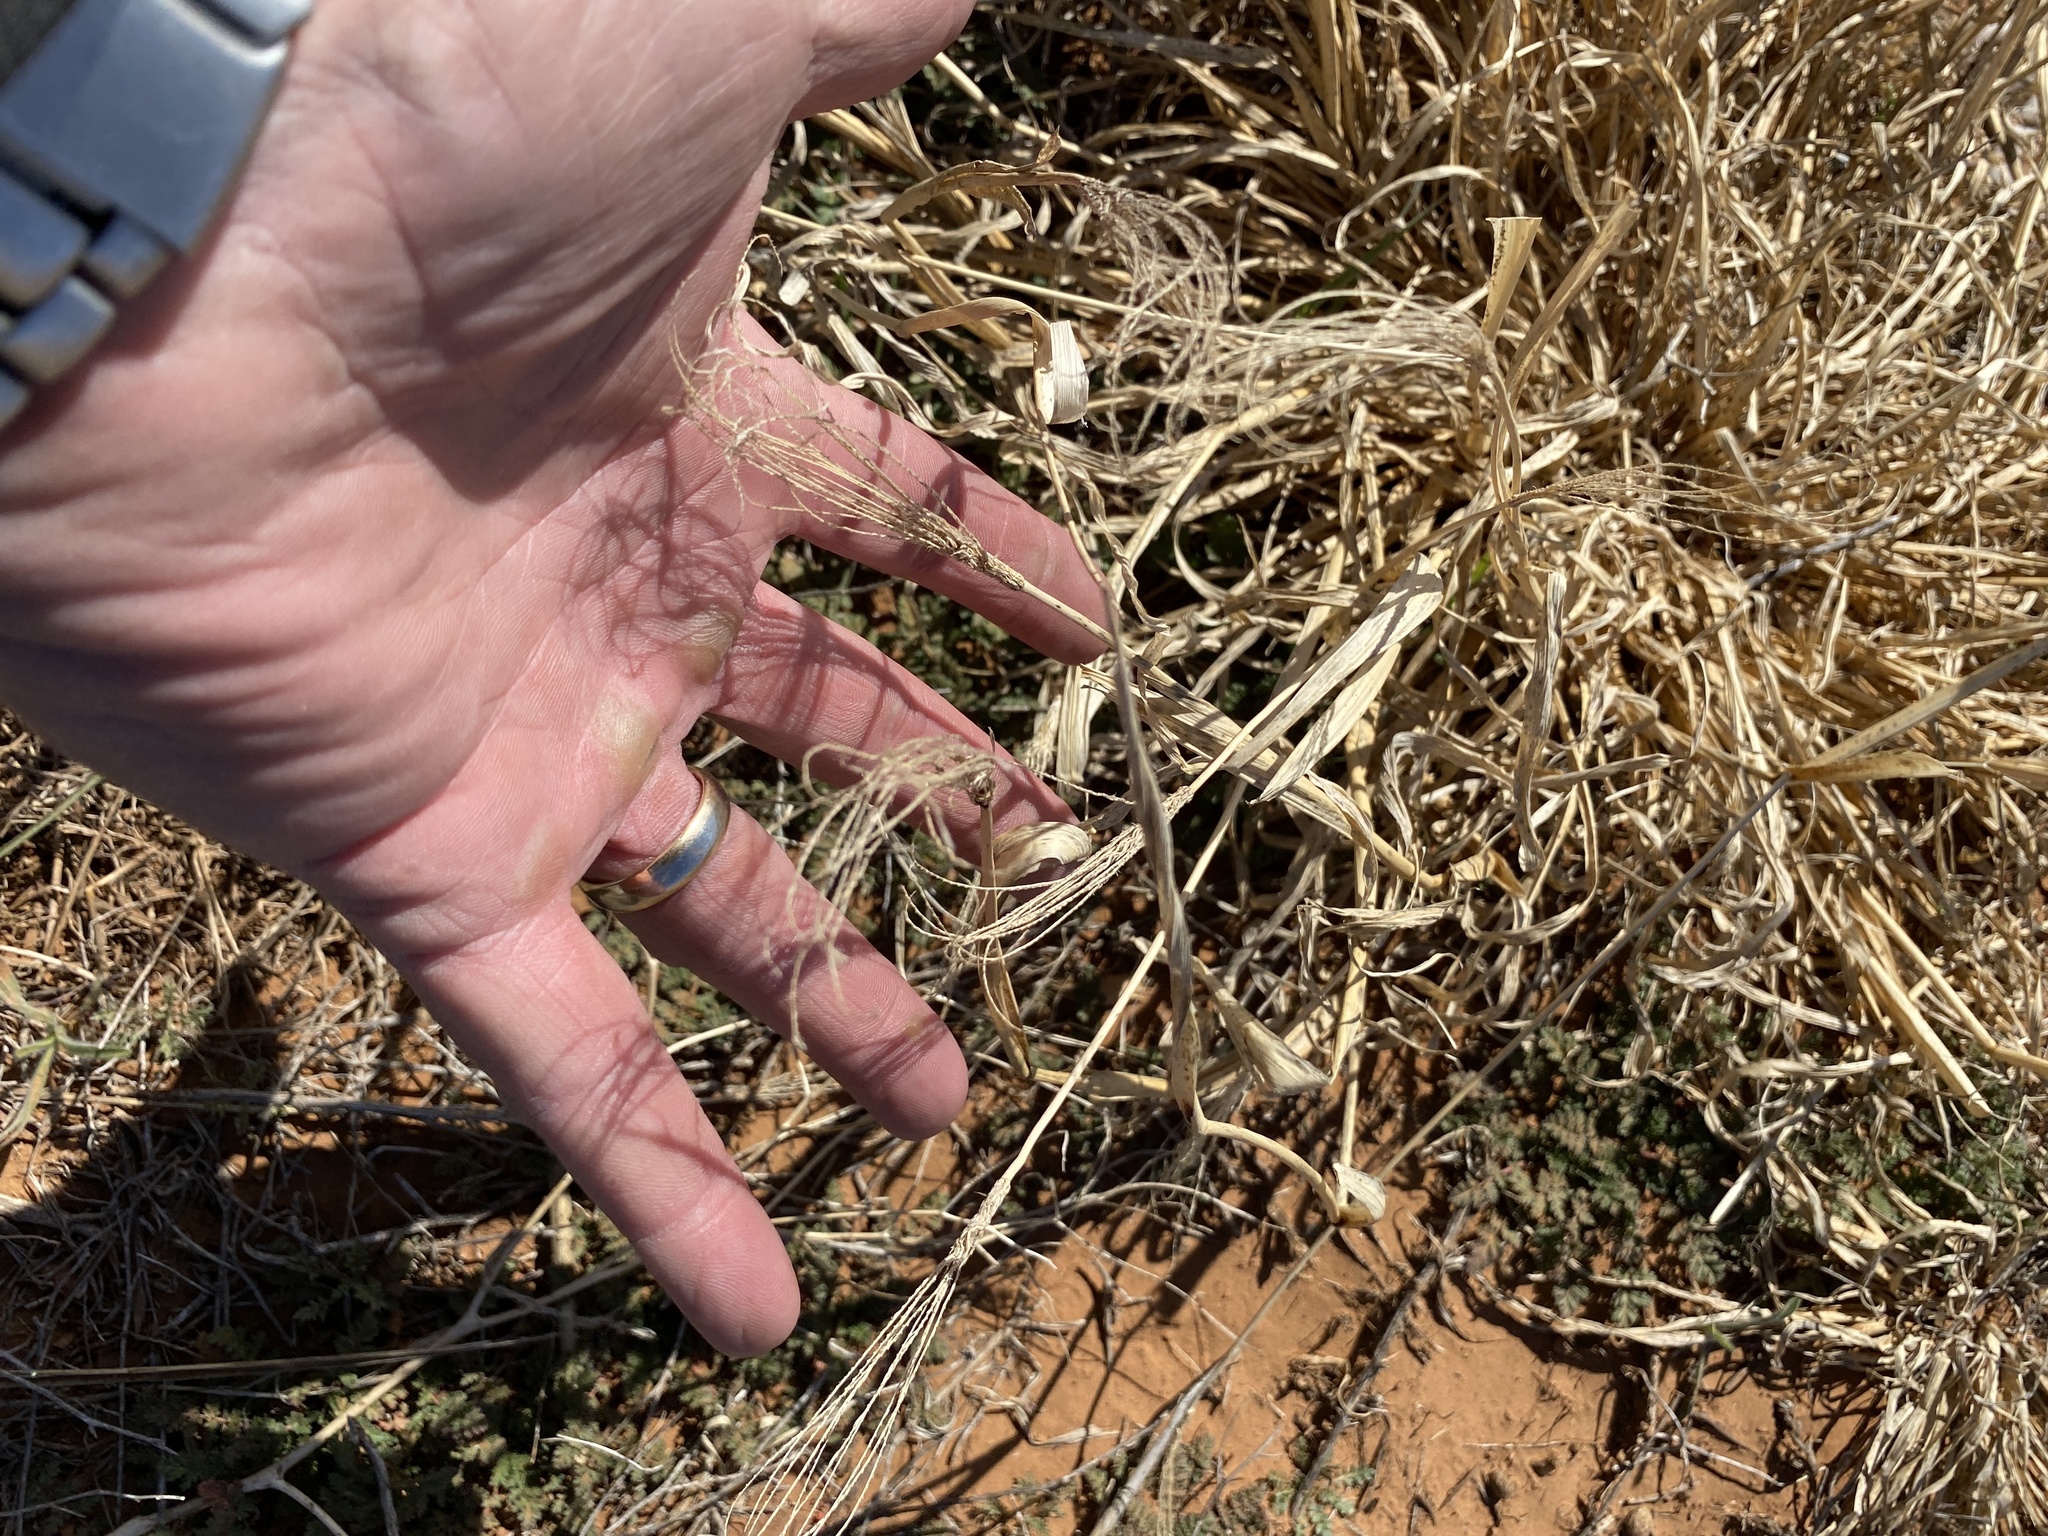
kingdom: Plantae
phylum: Tracheophyta
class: Liliopsida
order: Poales
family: Poaceae
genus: Chloris
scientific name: Chloris virgata
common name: Feathery rhodes-grass
